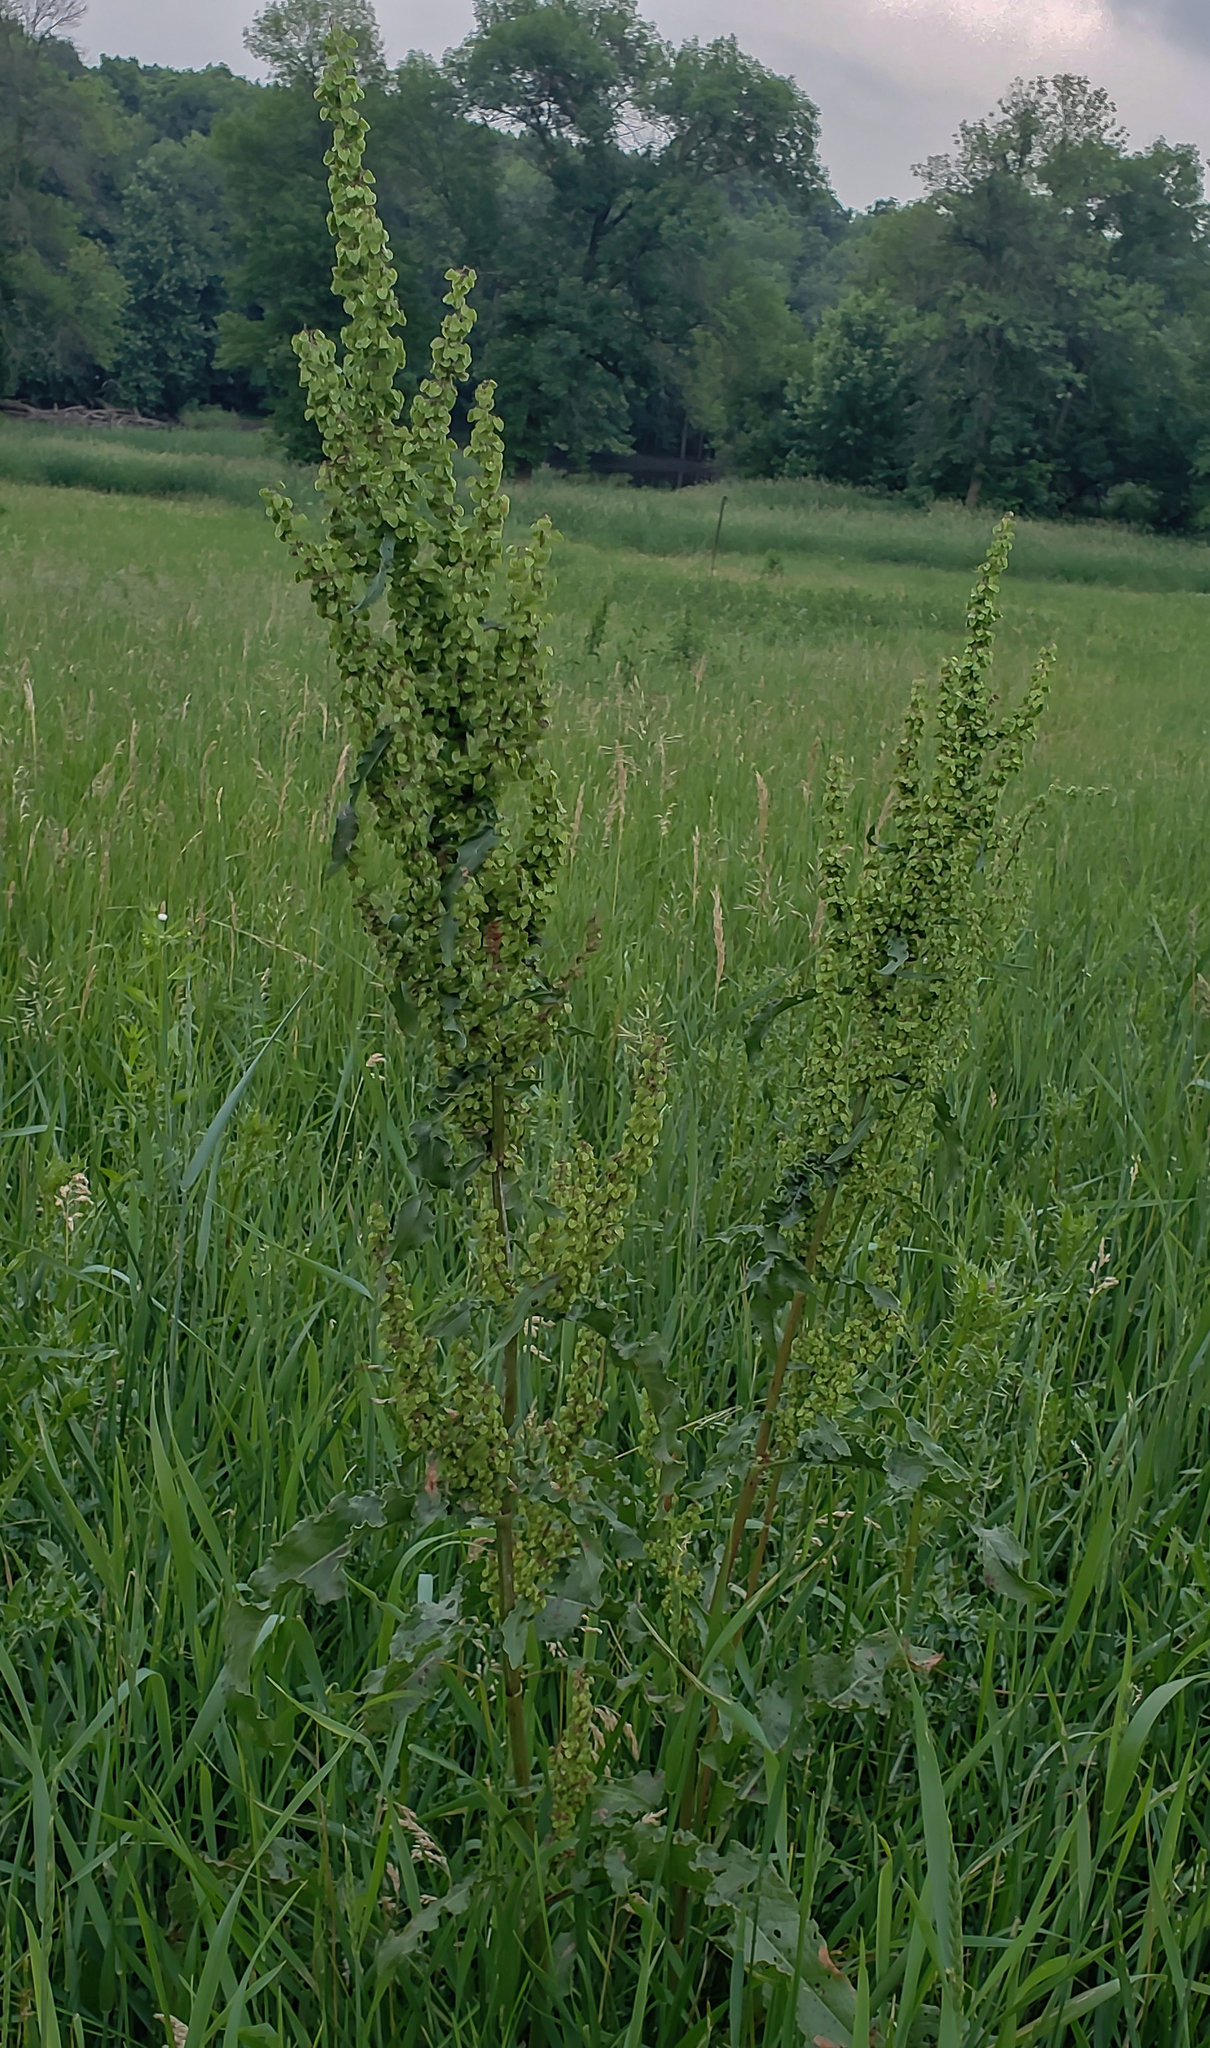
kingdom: Plantae
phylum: Tracheophyta
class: Magnoliopsida
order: Caryophyllales
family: Polygonaceae
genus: Rumex
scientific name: Rumex crispus
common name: Curled dock
